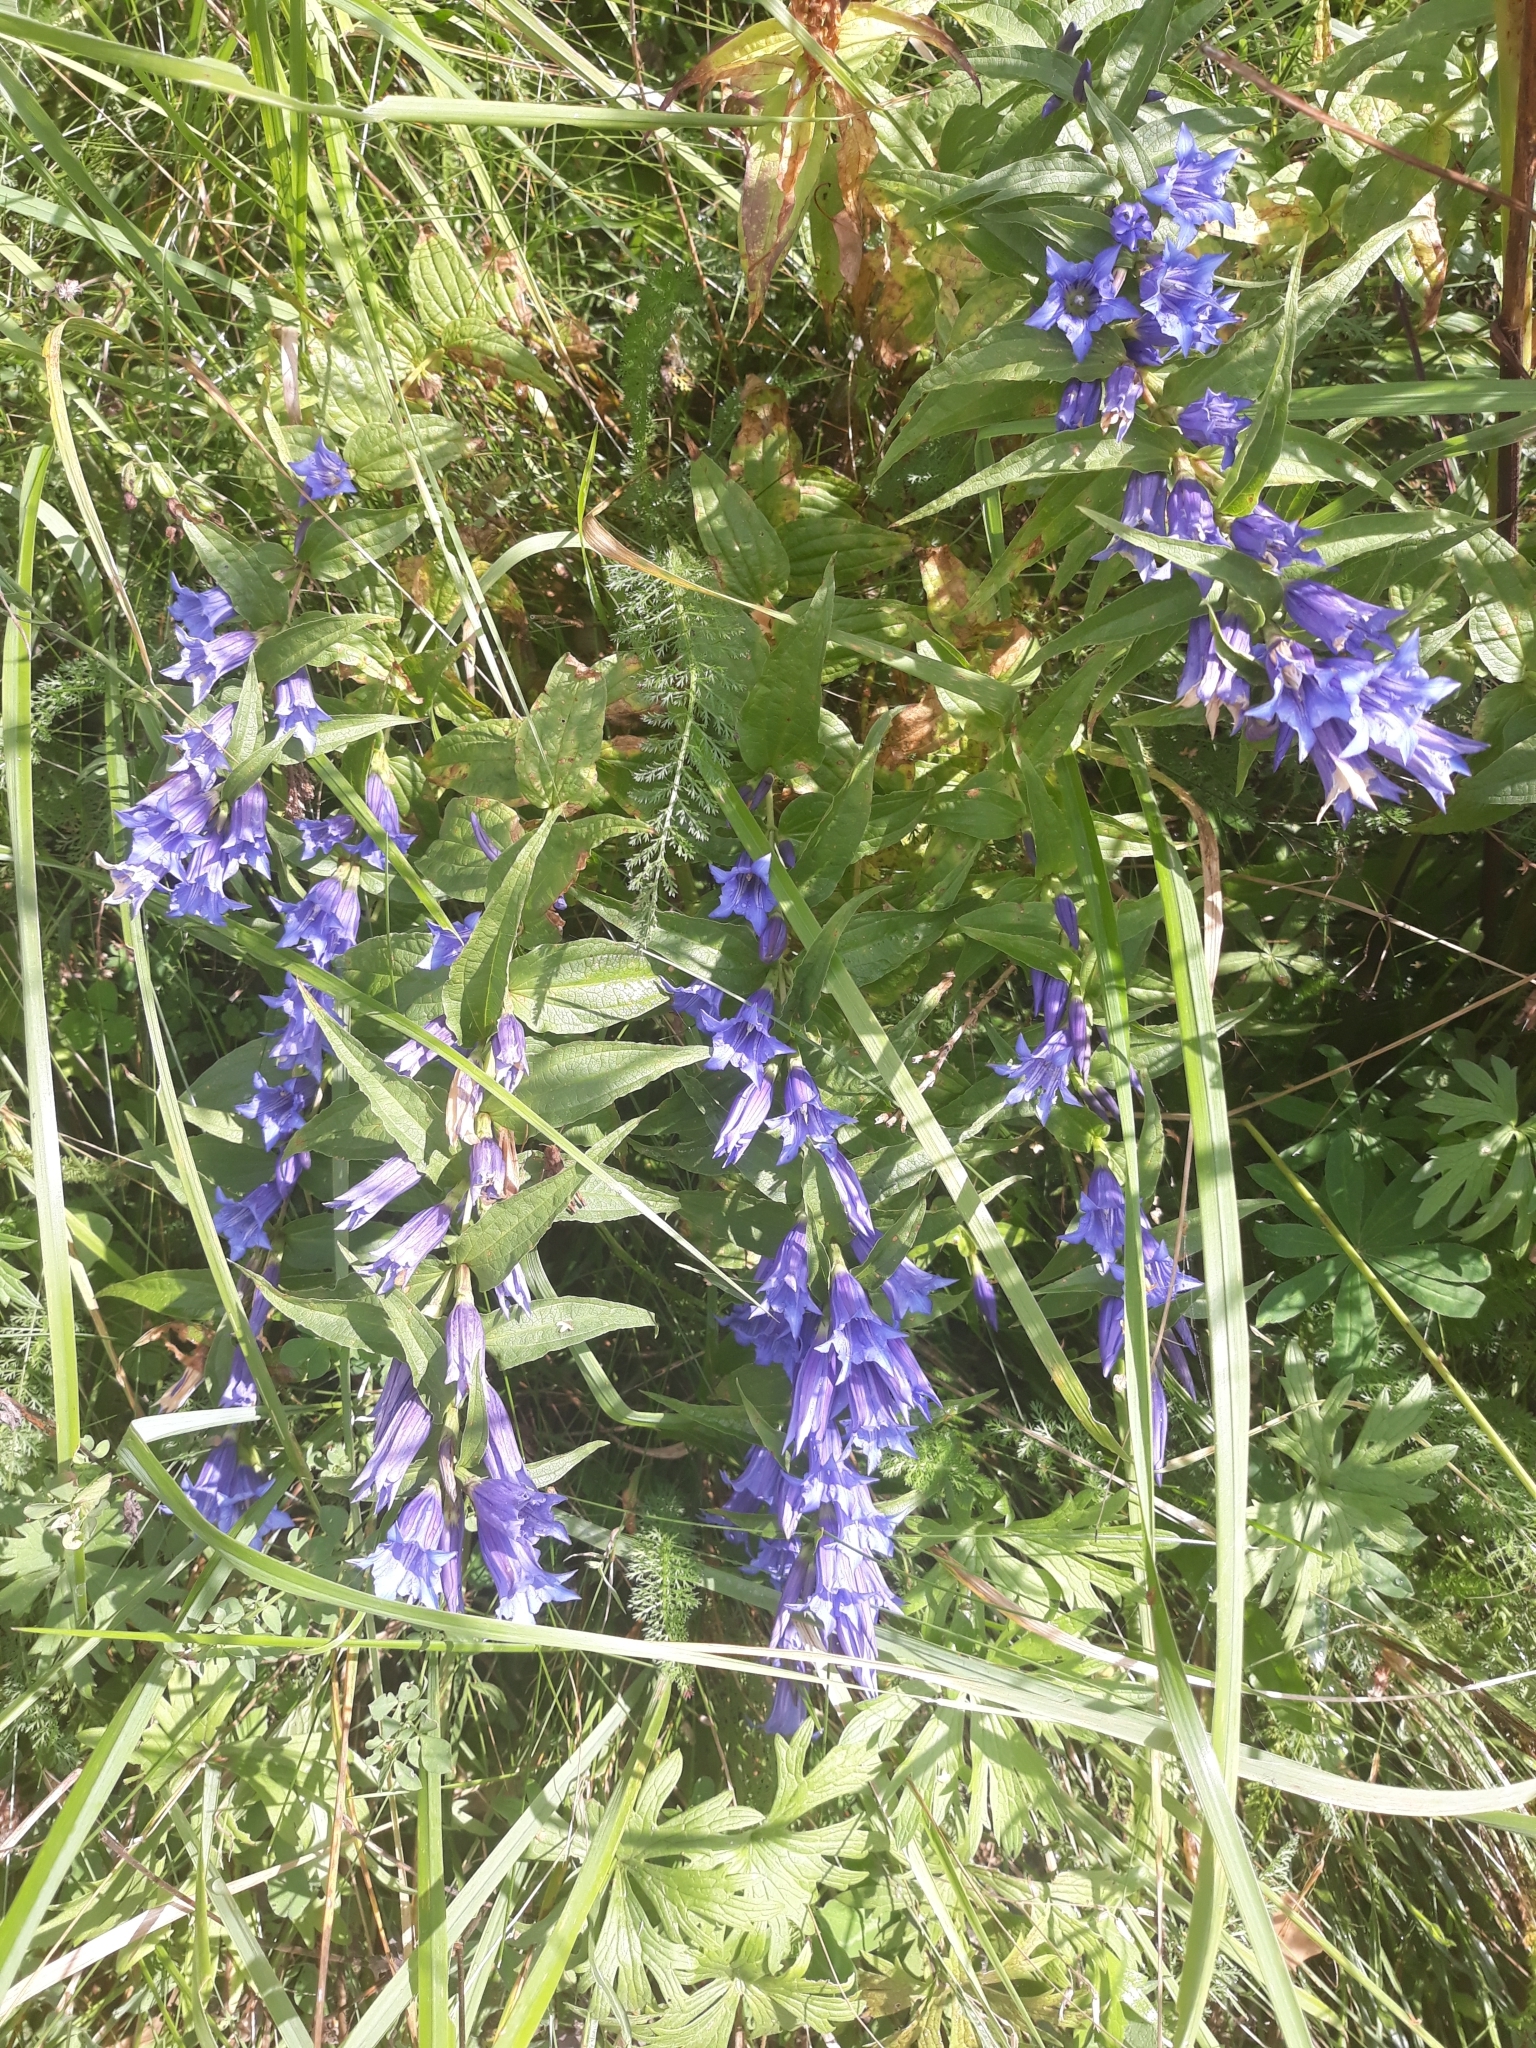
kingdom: Plantae
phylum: Tracheophyta
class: Magnoliopsida
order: Gentianales
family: Gentianaceae
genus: Gentiana
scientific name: Gentiana asclepiadea
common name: Willow gentian
